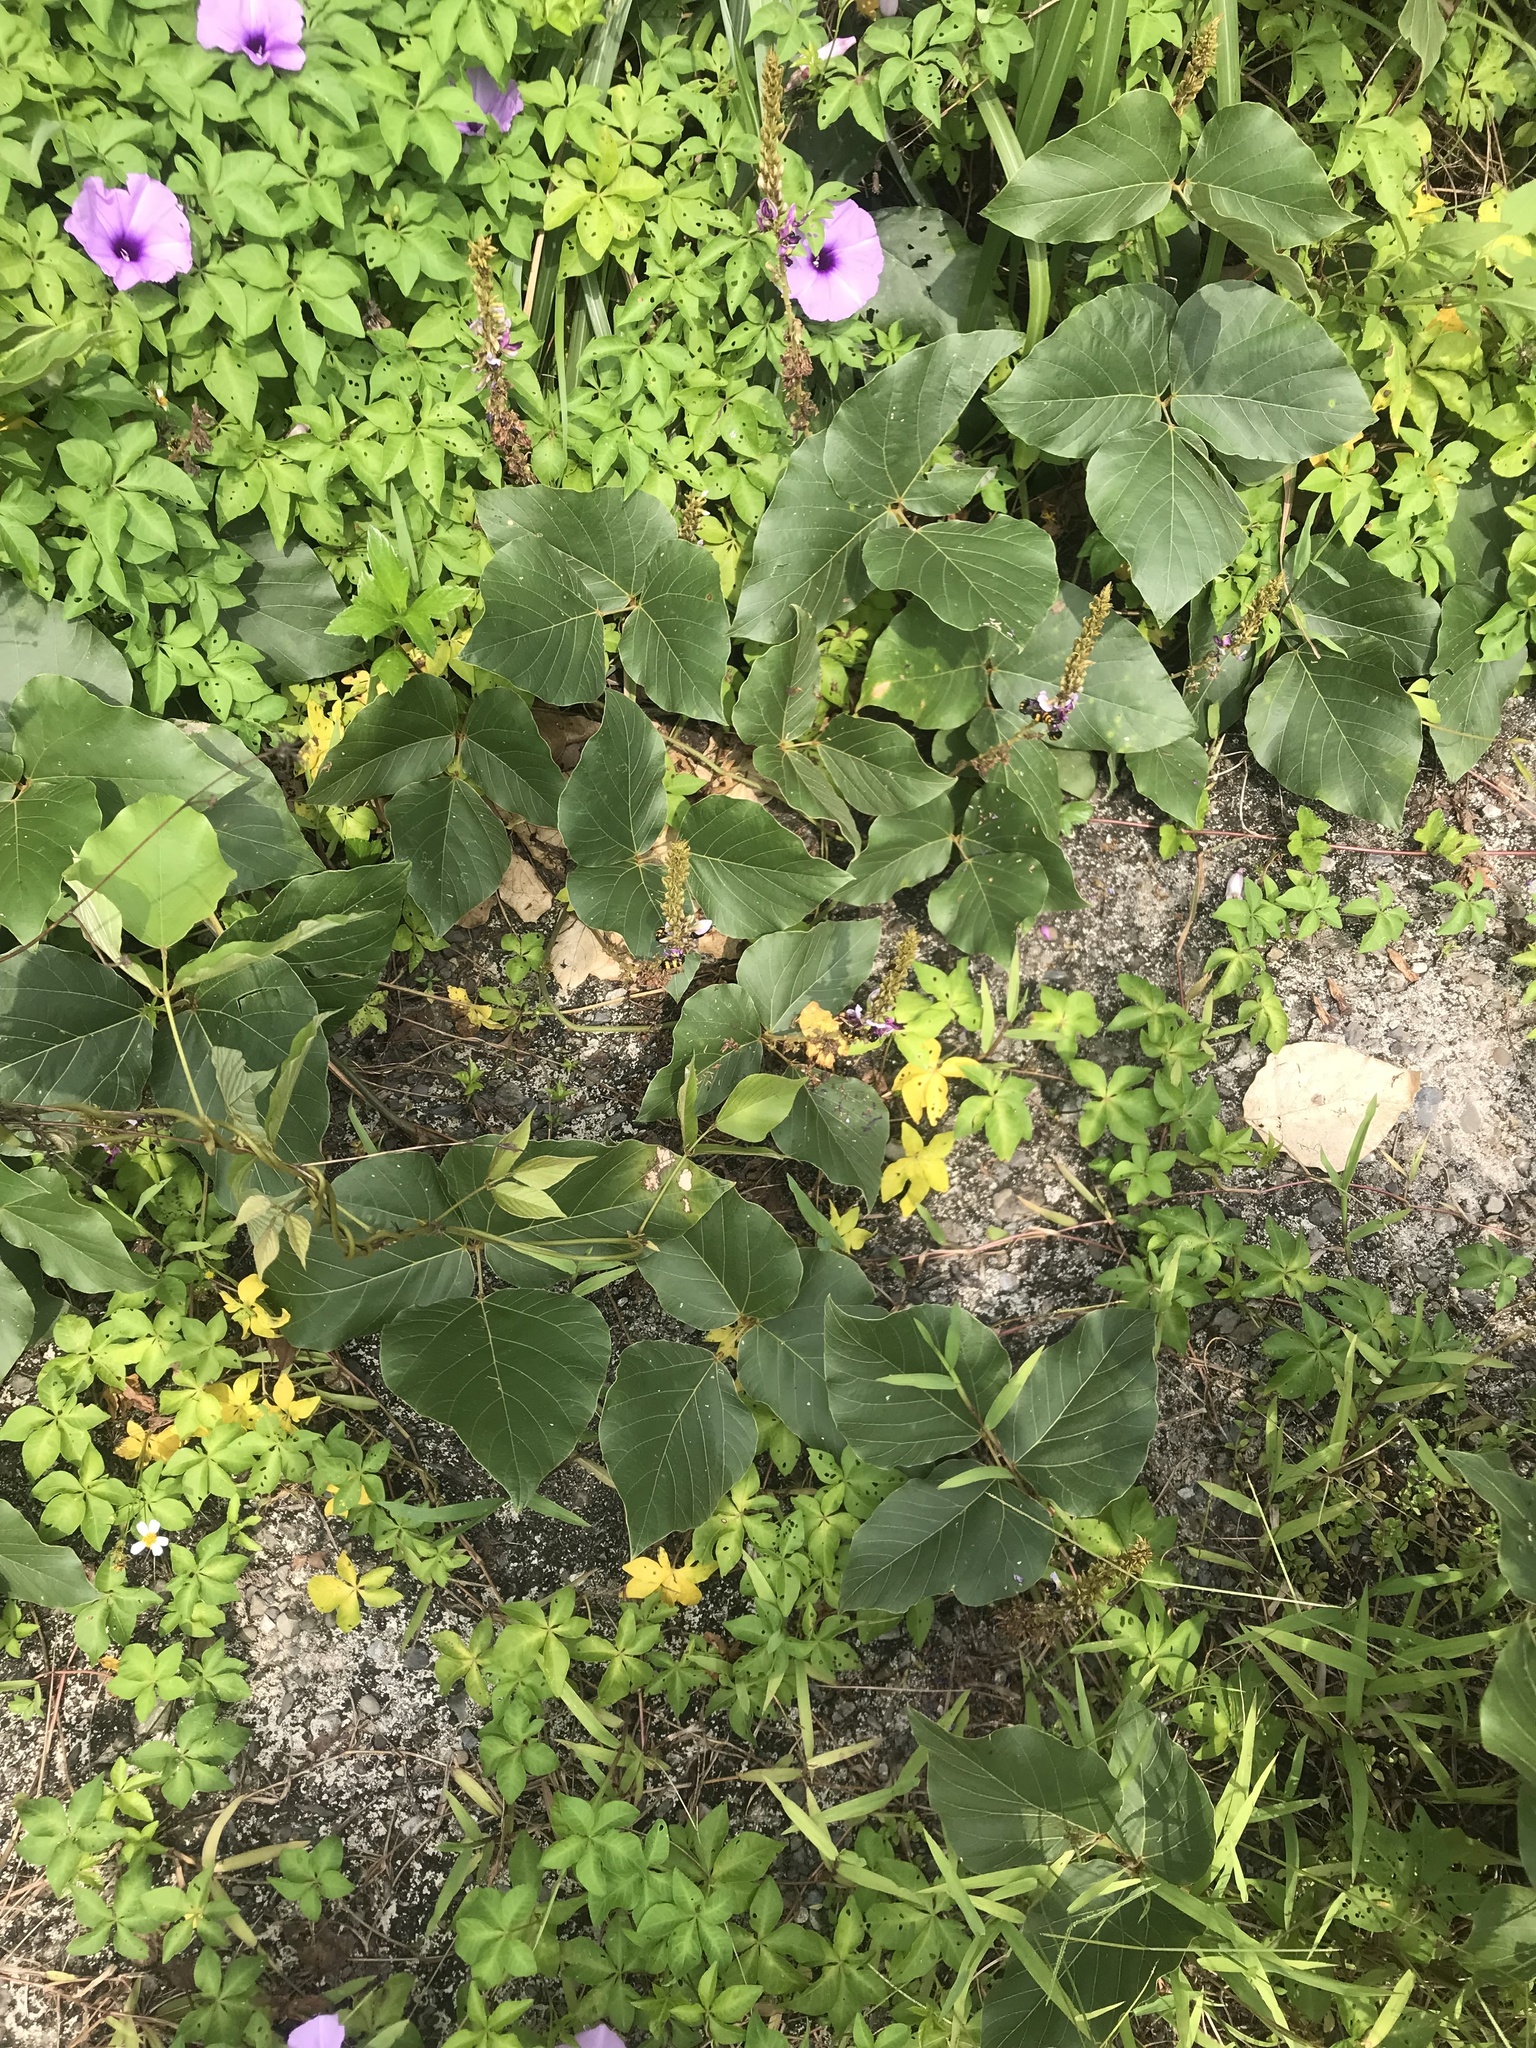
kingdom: Plantae
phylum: Tracheophyta
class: Magnoliopsida
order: Fabales
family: Fabaceae
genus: Pueraria
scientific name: Pueraria montana
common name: Kudzu
